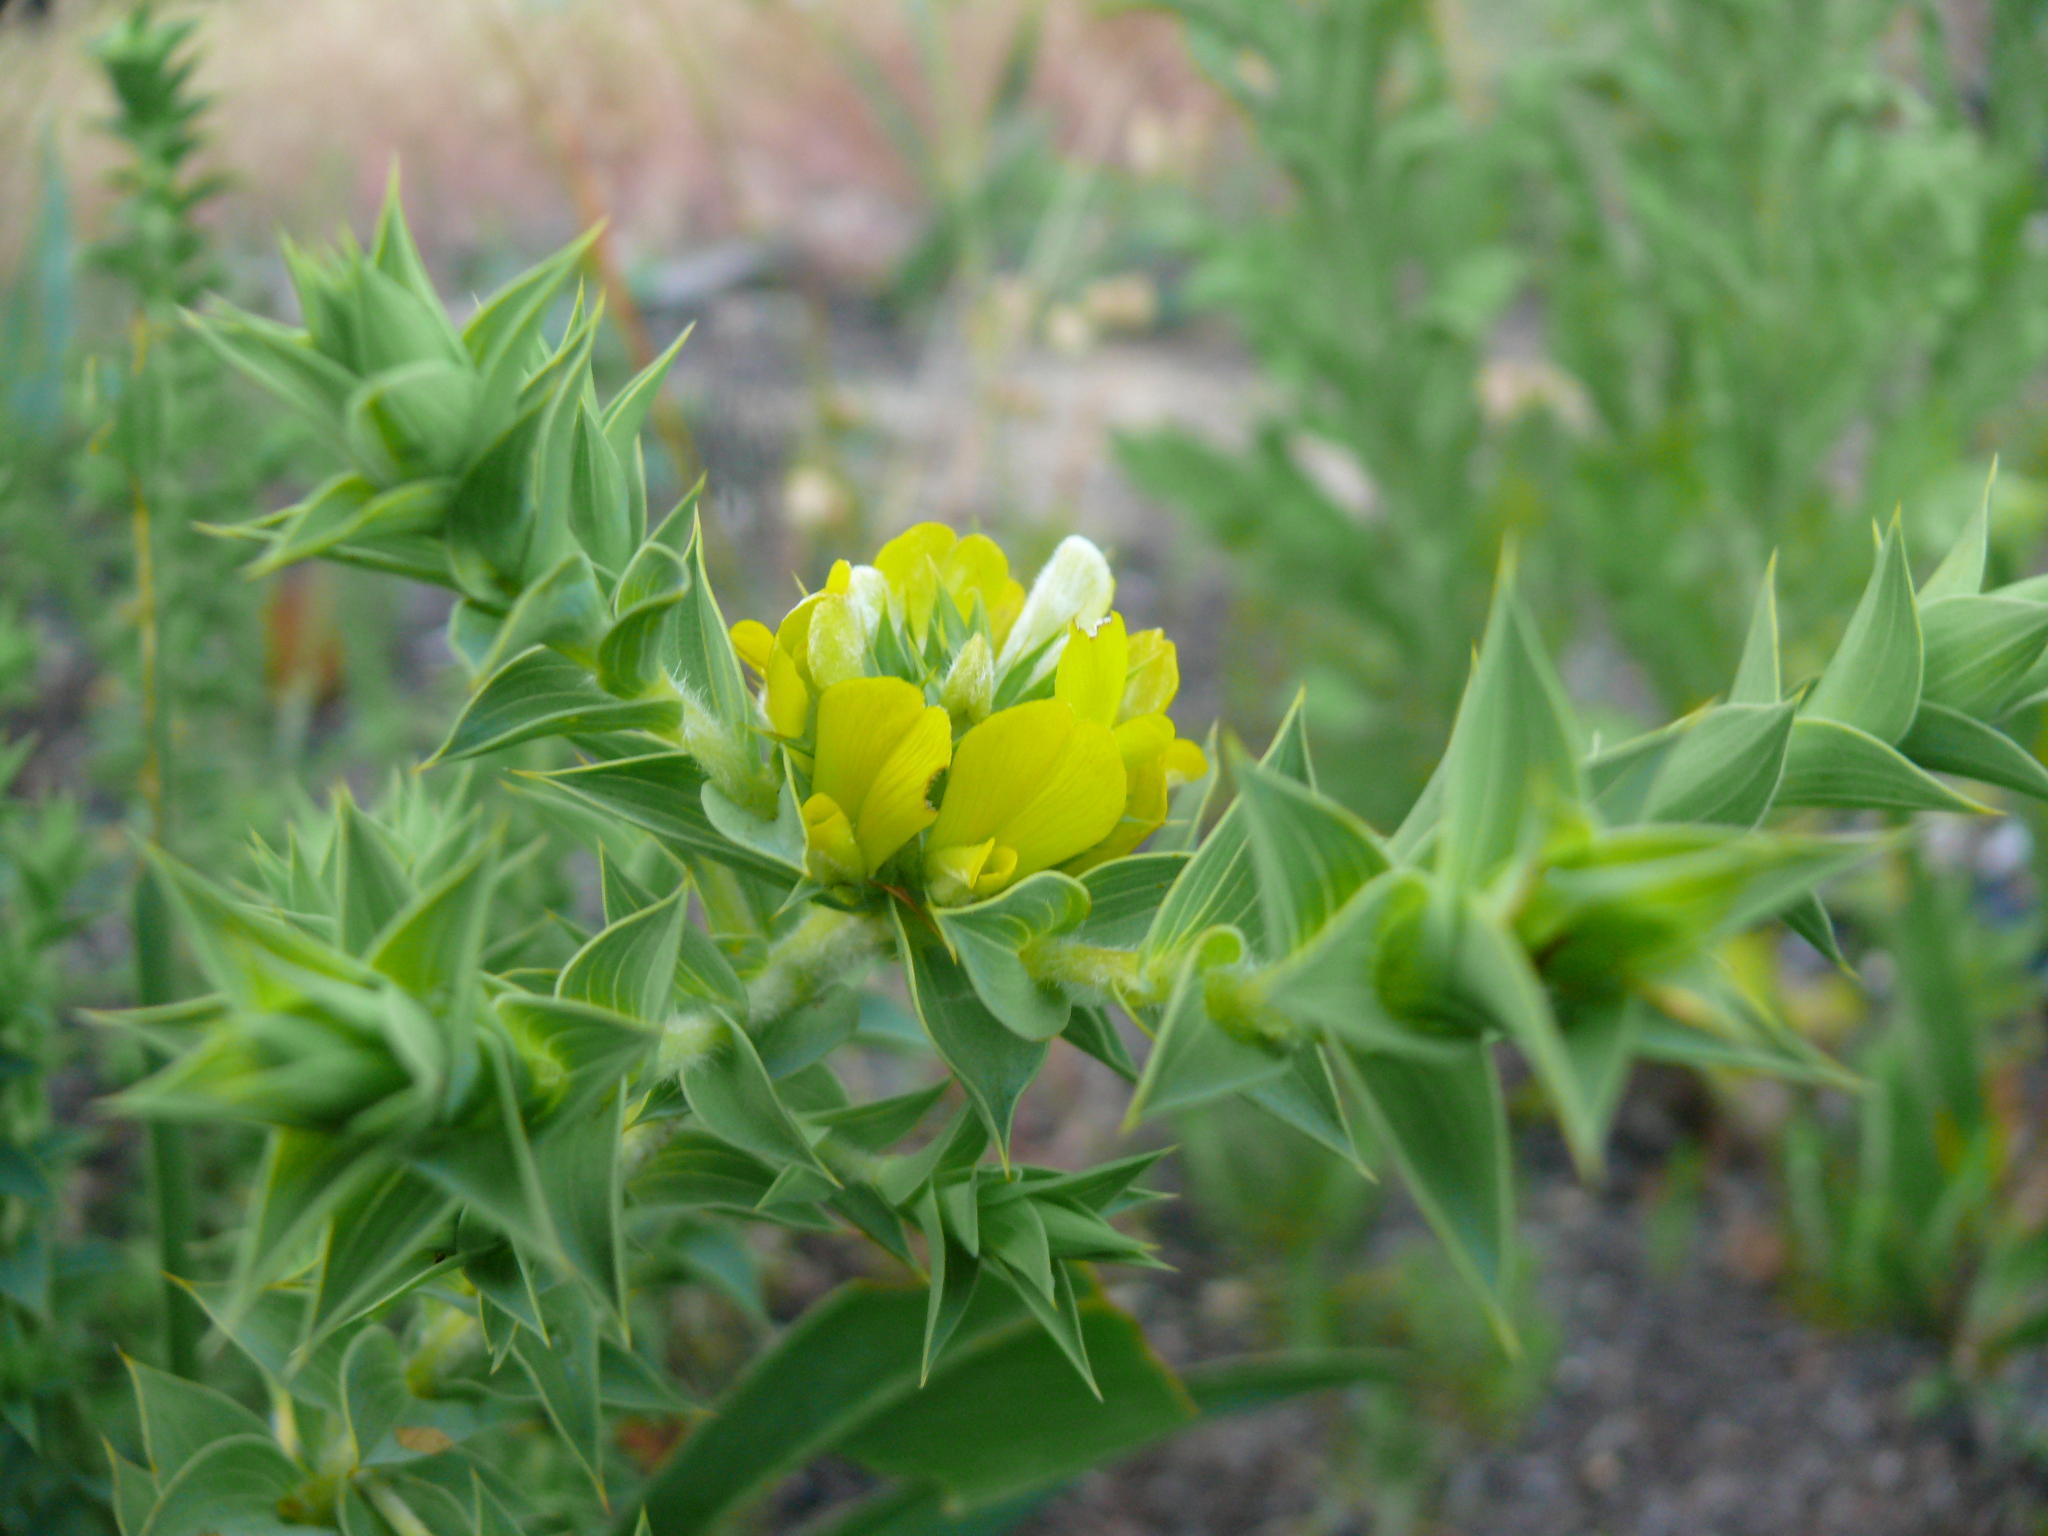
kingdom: Plantae
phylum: Tracheophyta
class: Magnoliopsida
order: Fabales
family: Fabaceae
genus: Aspalathus
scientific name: Aspalathus cordata
